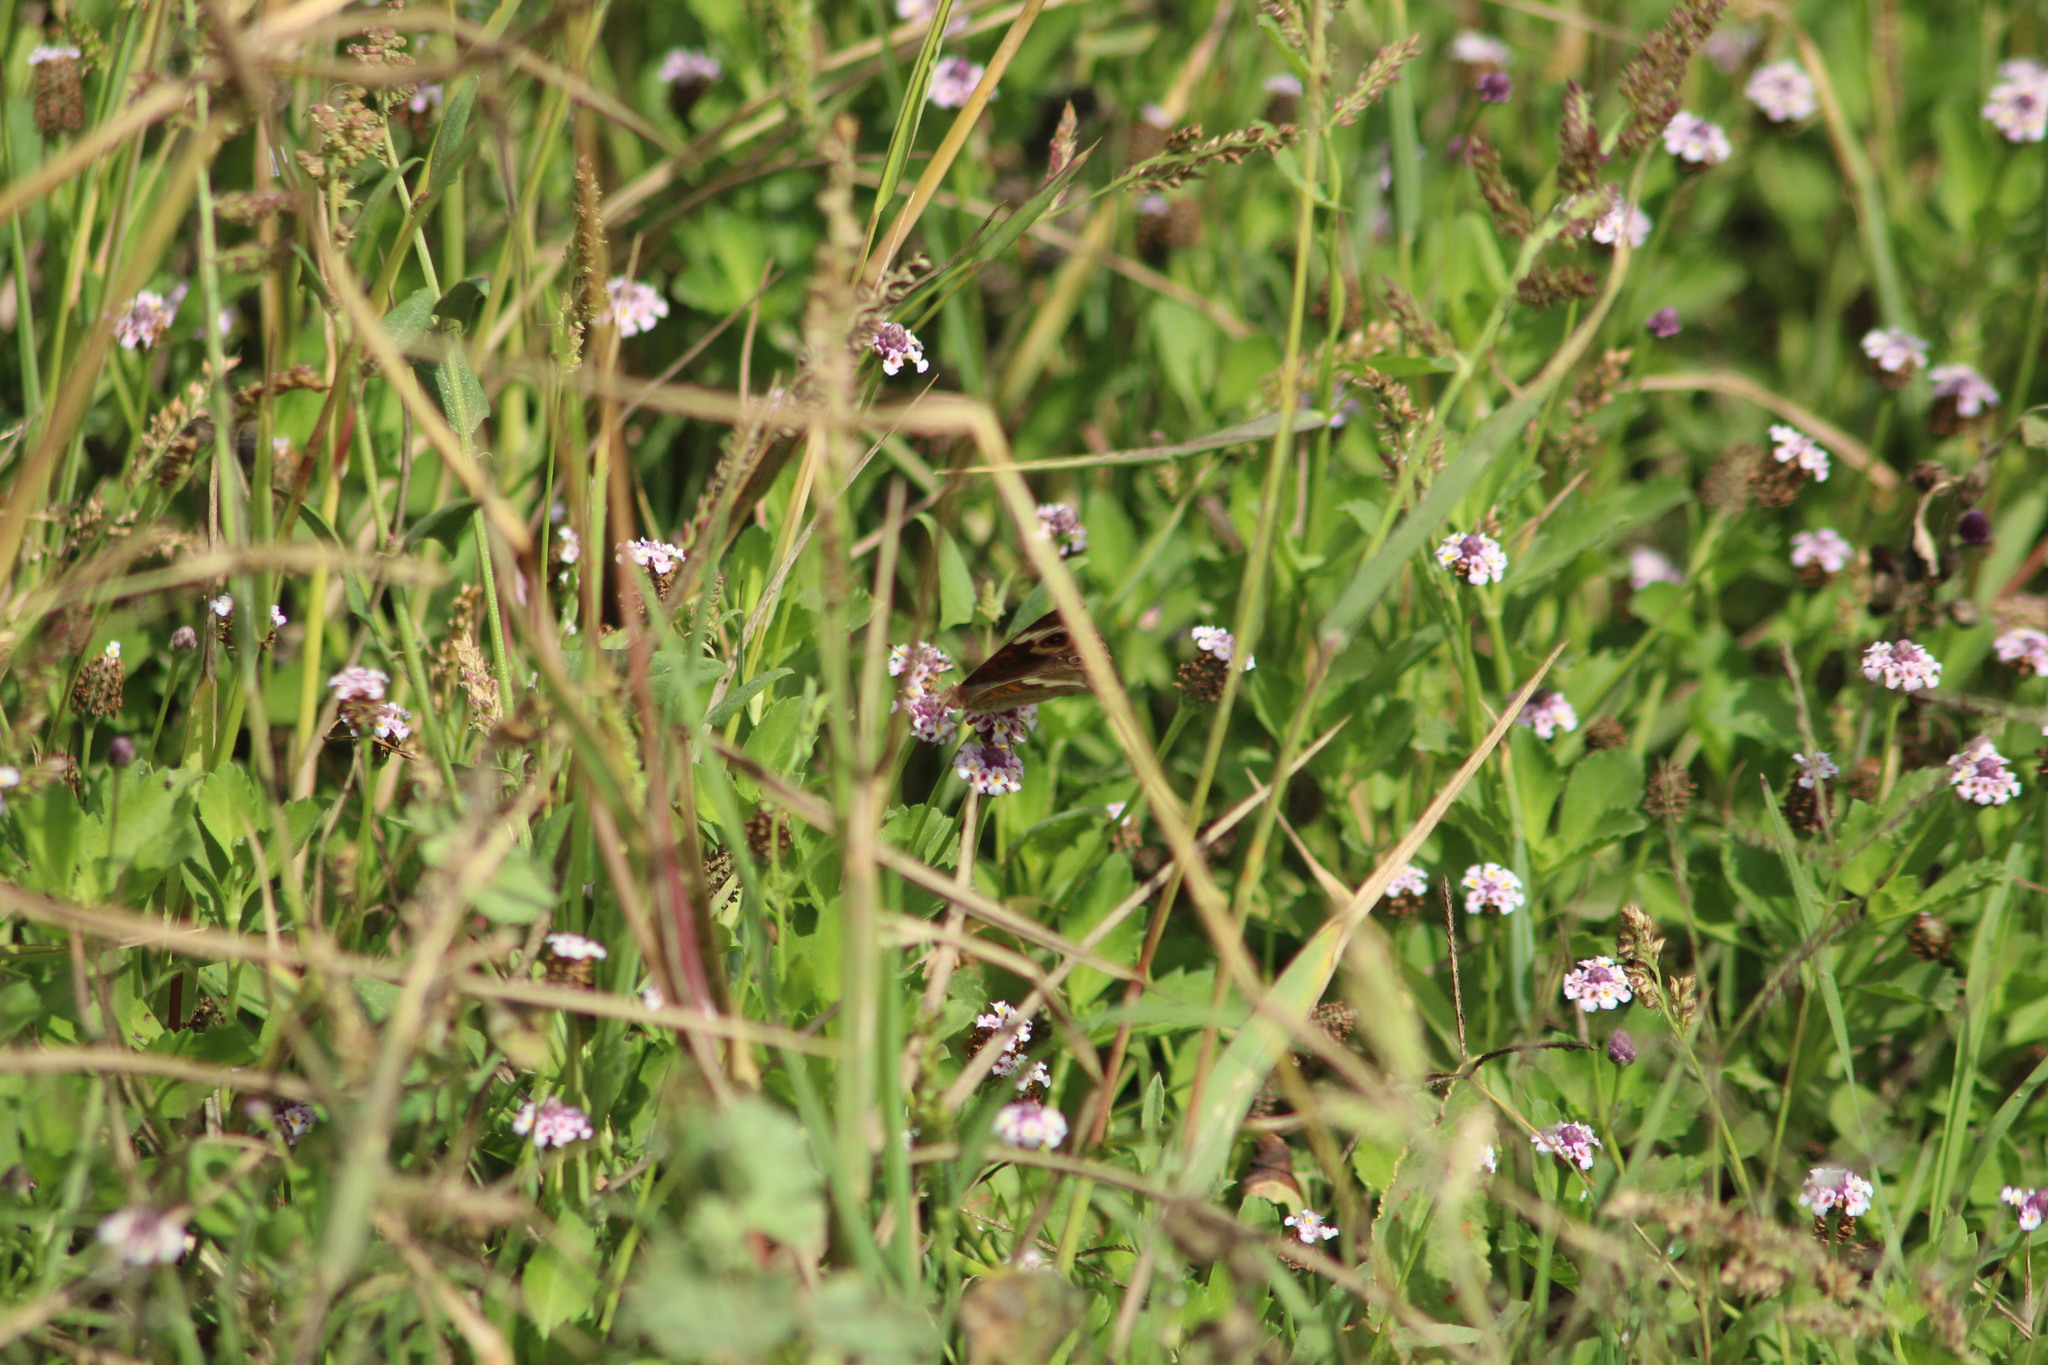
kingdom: Animalia
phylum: Arthropoda
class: Insecta
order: Lepidoptera
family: Nymphalidae
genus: Junonia
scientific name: Junonia grisea
